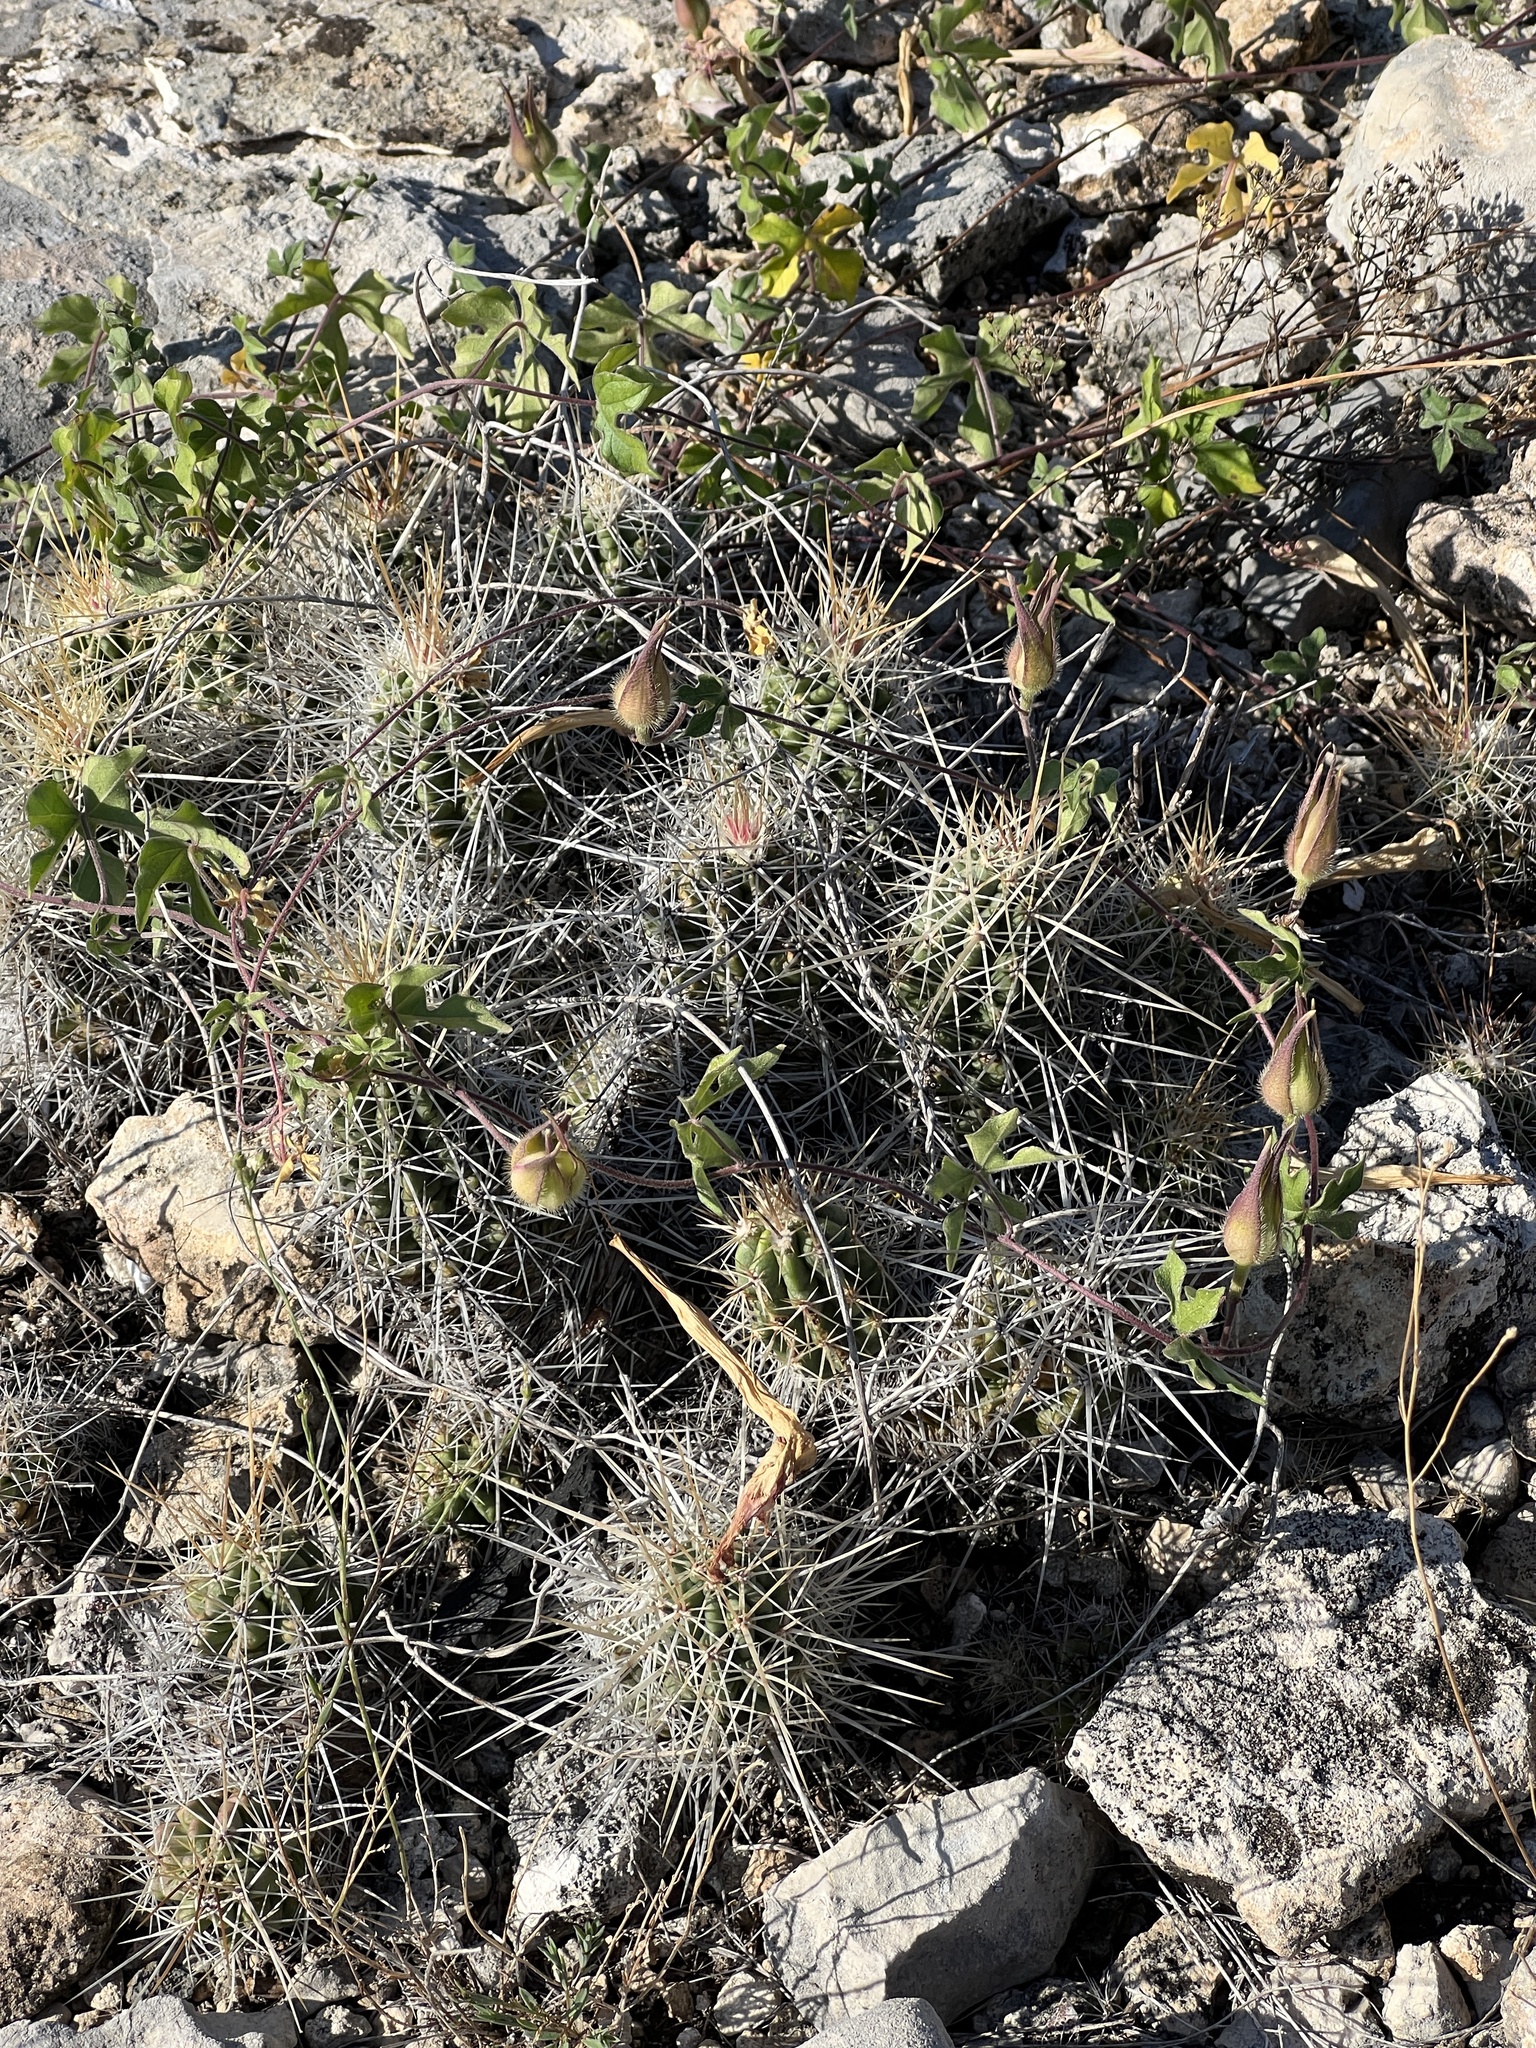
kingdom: Plantae
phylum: Tracheophyta
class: Magnoliopsida
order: Caryophyllales
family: Cactaceae
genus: Echinocereus
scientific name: Echinocereus enneacanthus
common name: Pitaya
